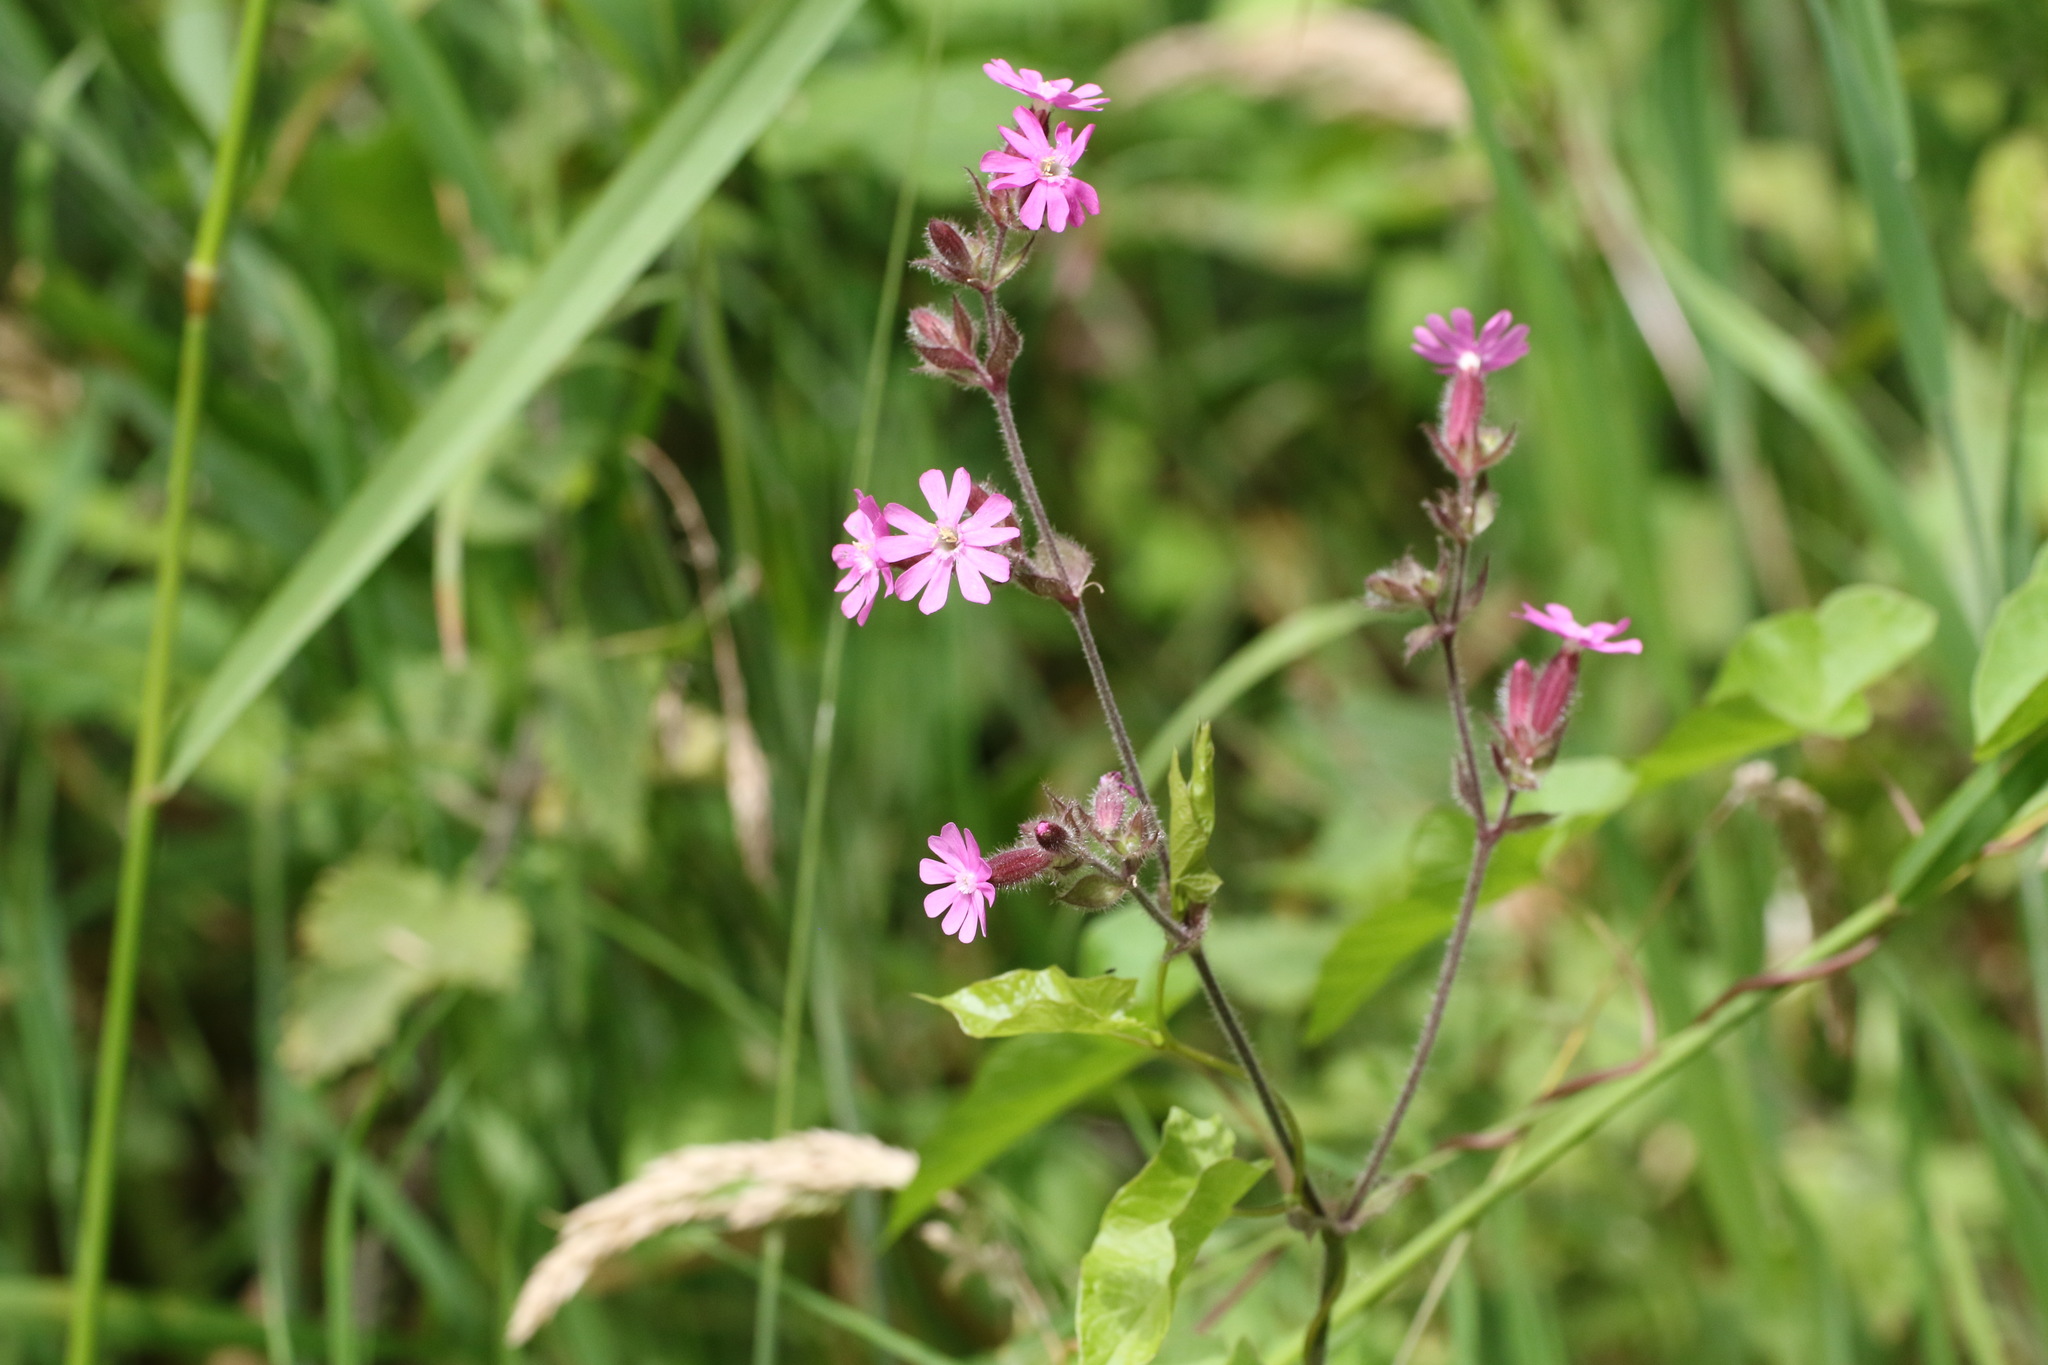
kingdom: Plantae
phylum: Tracheophyta
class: Magnoliopsida
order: Caryophyllales
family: Caryophyllaceae
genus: Silene
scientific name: Silene dioica
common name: Red campion
